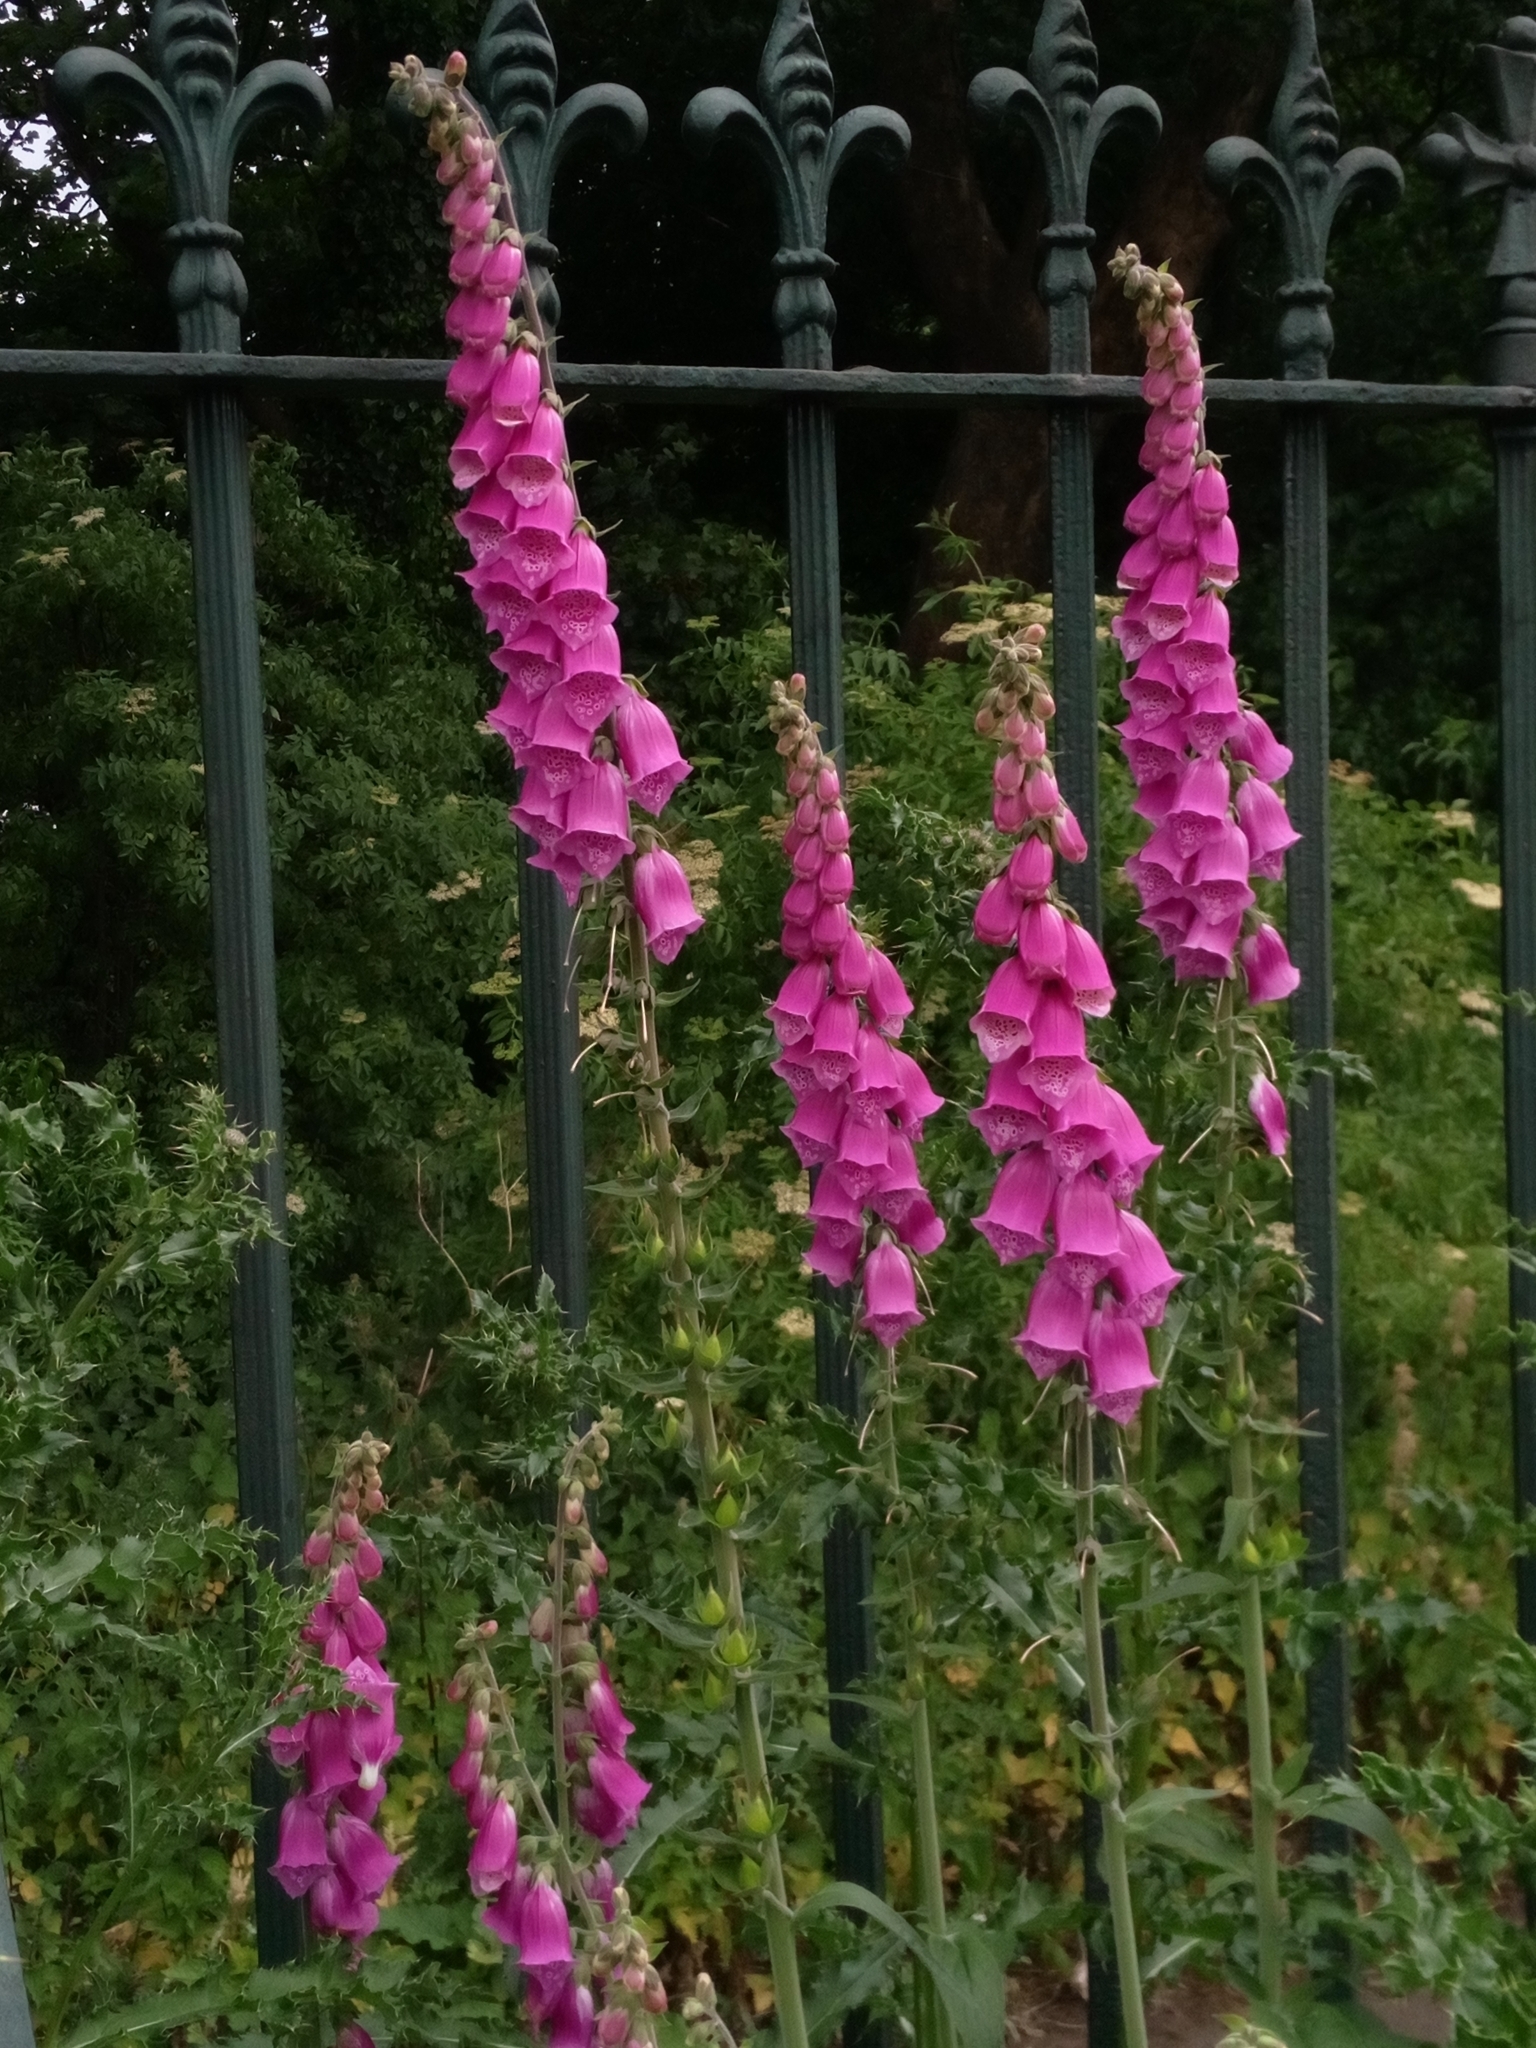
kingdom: Plantae
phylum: Tracheophyta
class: Magnoliopsida
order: Lamiales
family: Plantaginaceae
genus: Digitalis
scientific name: Digitalis purpurea
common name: Foxglove
